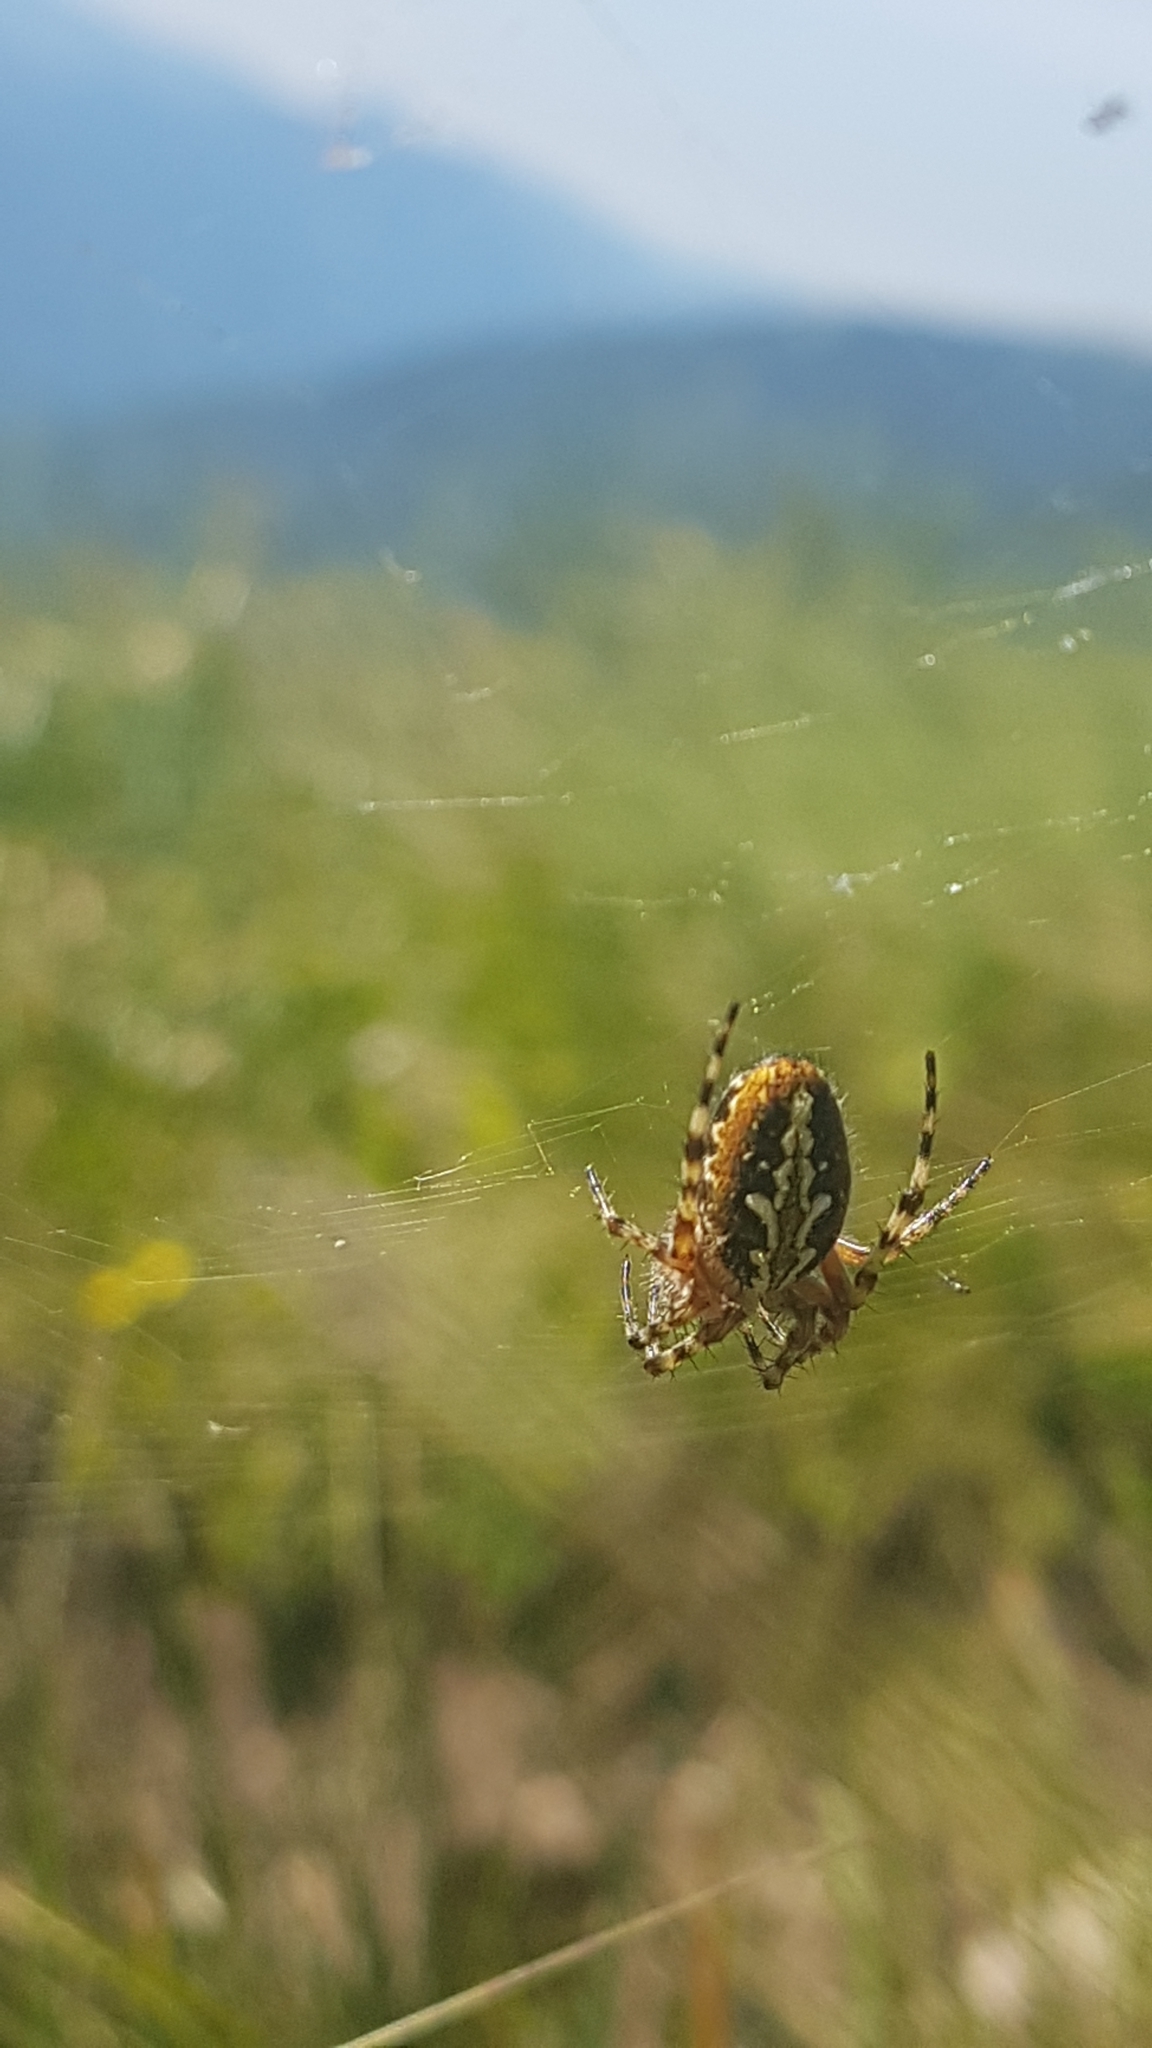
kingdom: Animalia
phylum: Arthropoda
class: Arachnida
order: Araneae
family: Araneidae
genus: Aculepeira
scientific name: Aculepeira ceropegia
